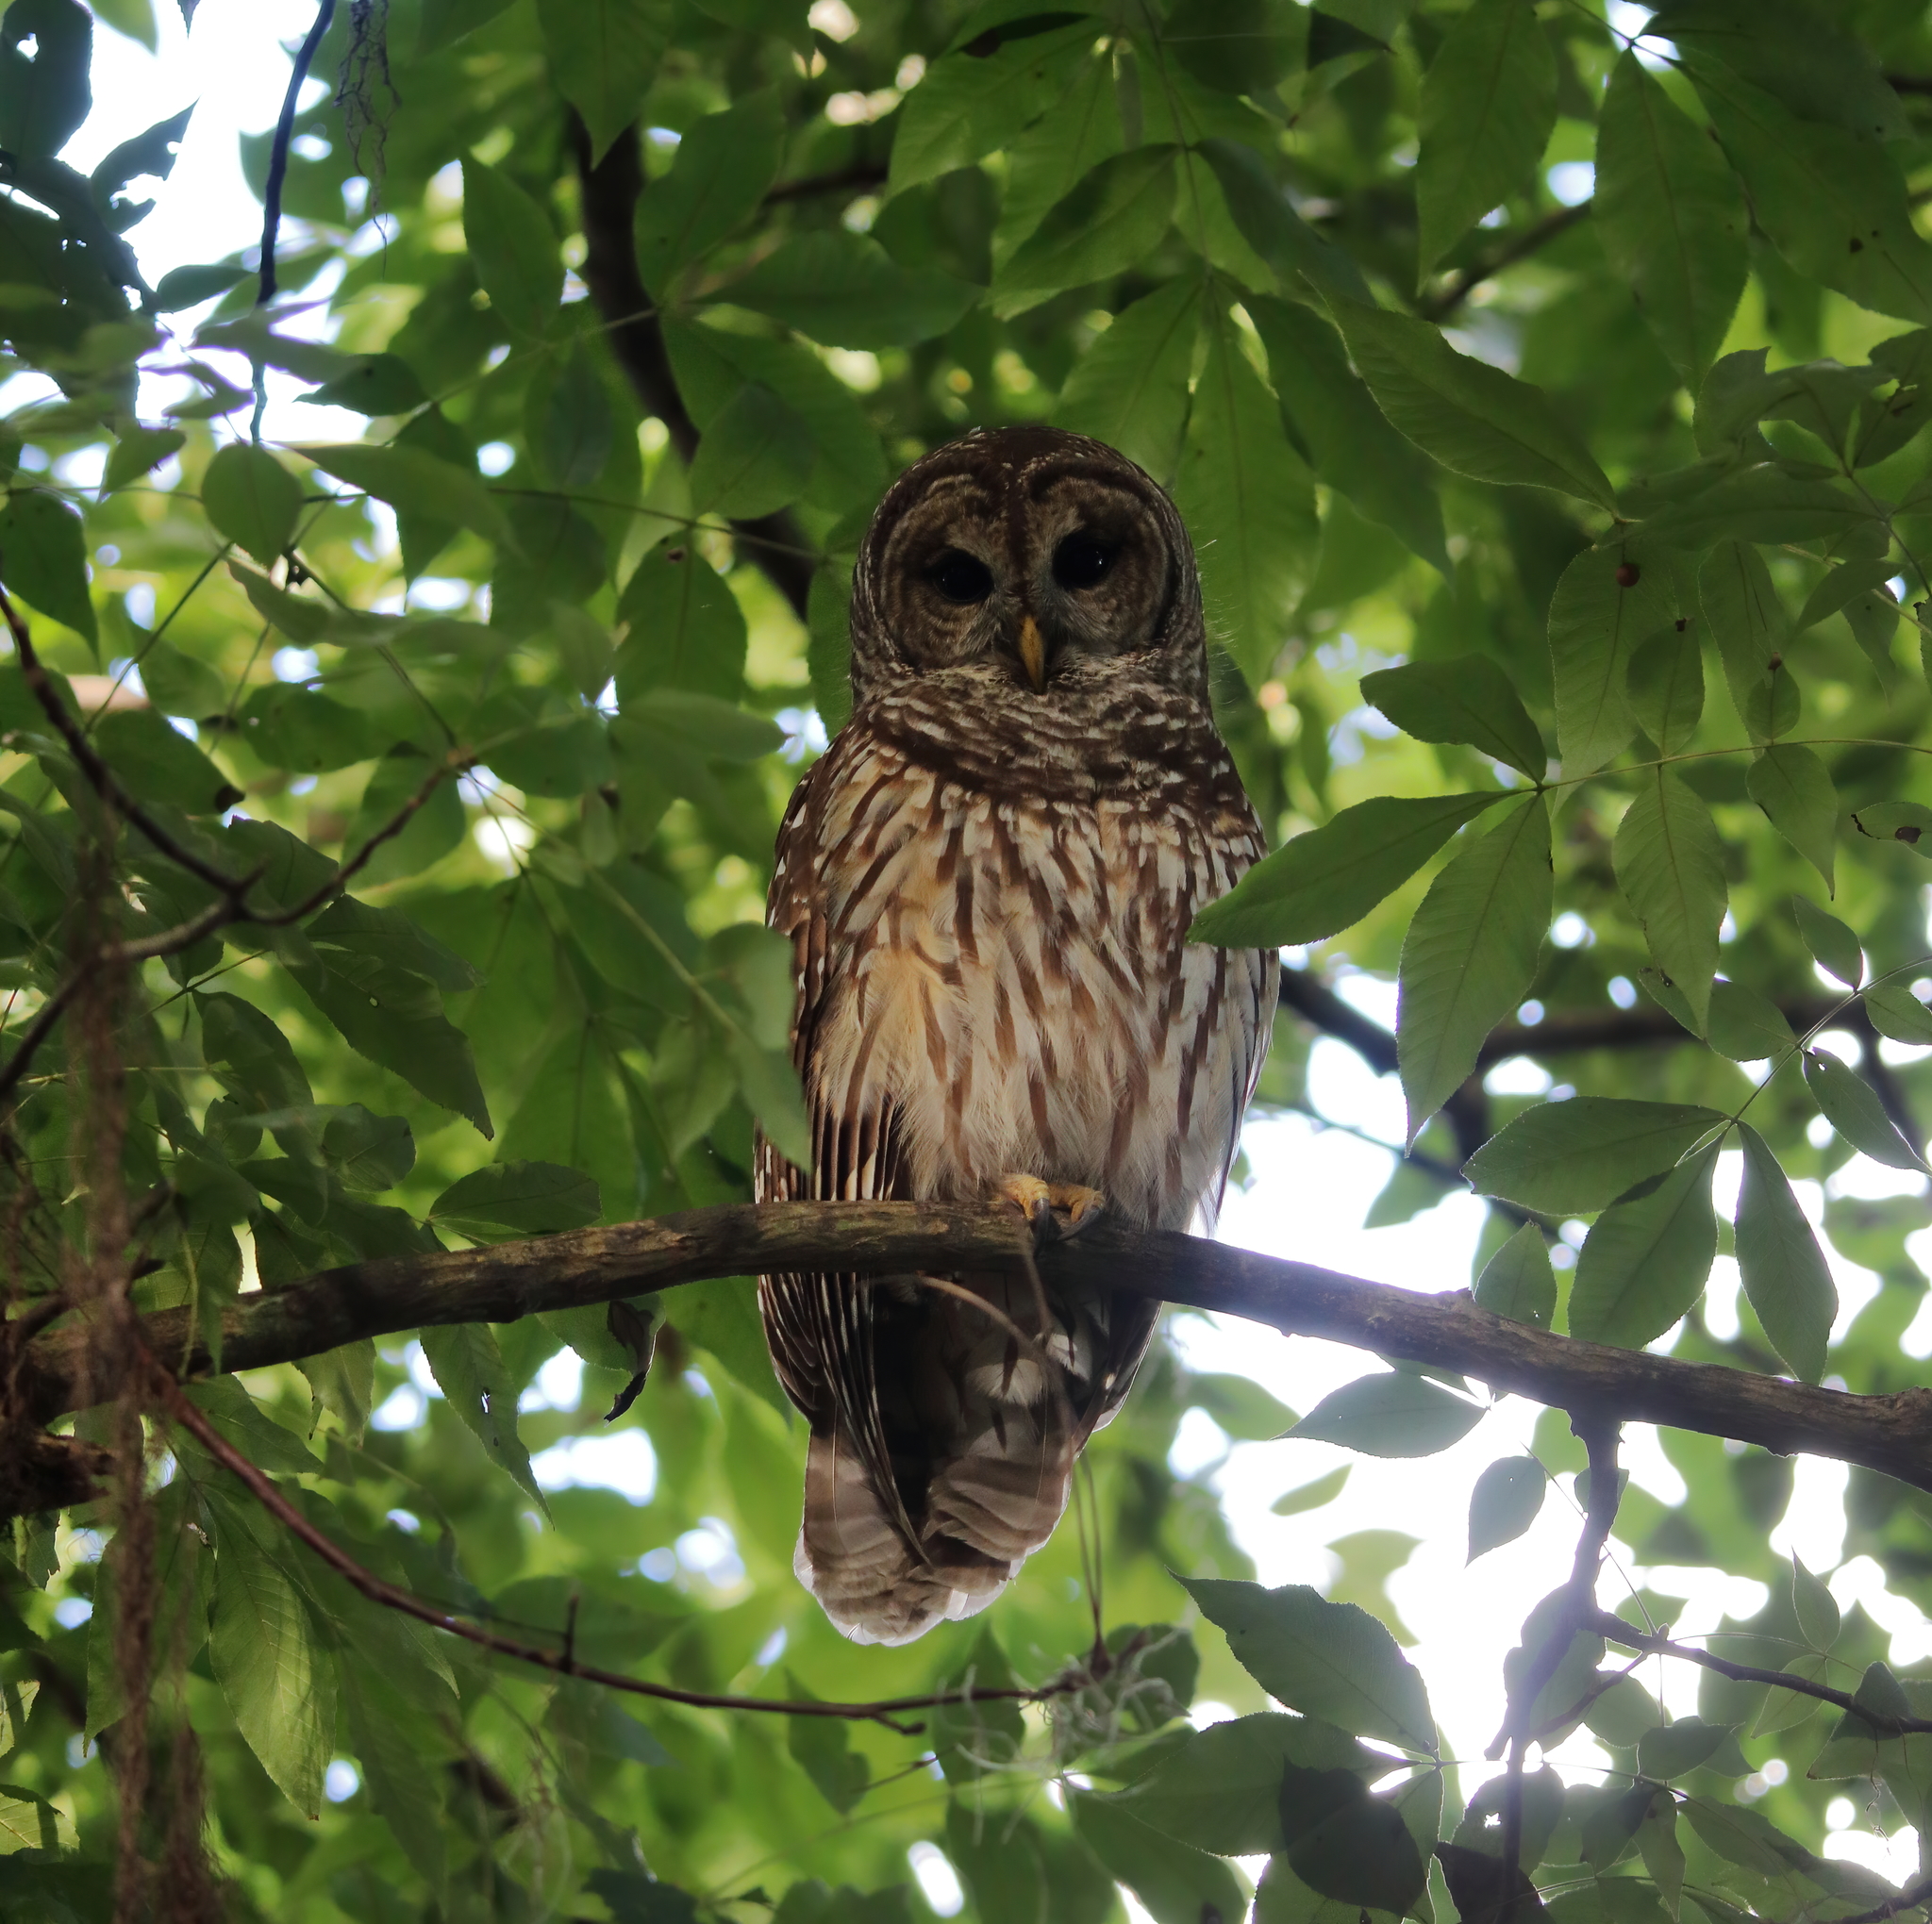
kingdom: Animalia
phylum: Chordata
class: Aves
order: Strigiformes
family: Strigidae
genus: Strix
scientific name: Strix varia
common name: Barred owl
